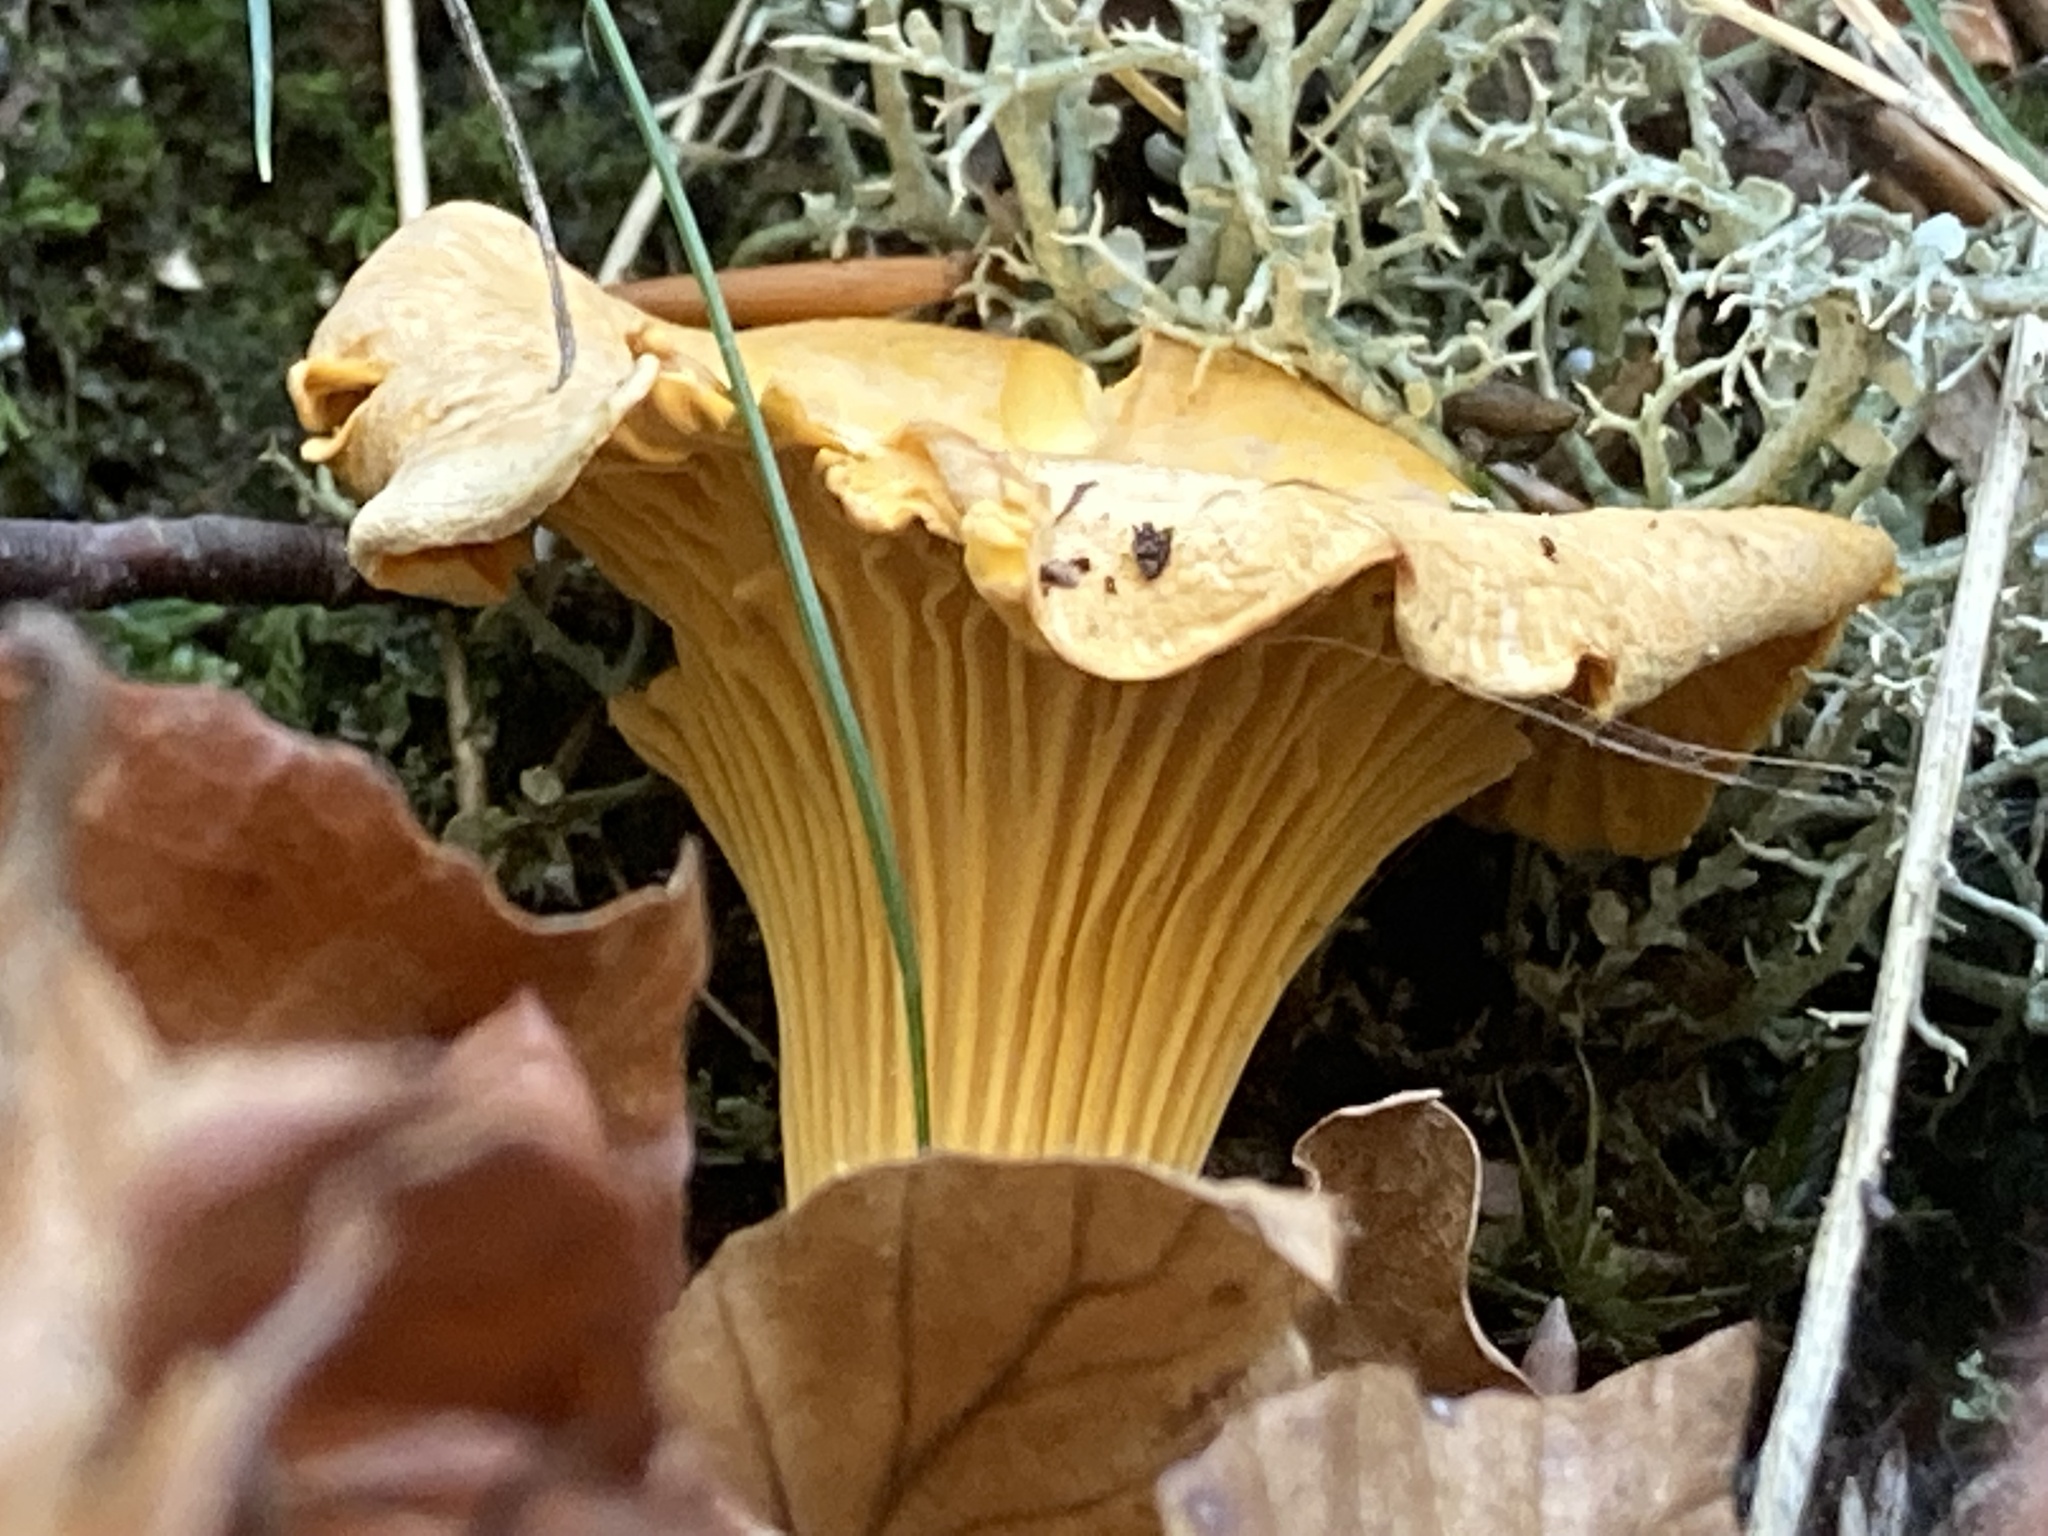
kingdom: Fungi
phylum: Basidiomycota
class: Agaricomycetes
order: Cantharellales
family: Hydnaceae
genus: Cantharellus
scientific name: Cantharellus cibarius
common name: Chanterelle
